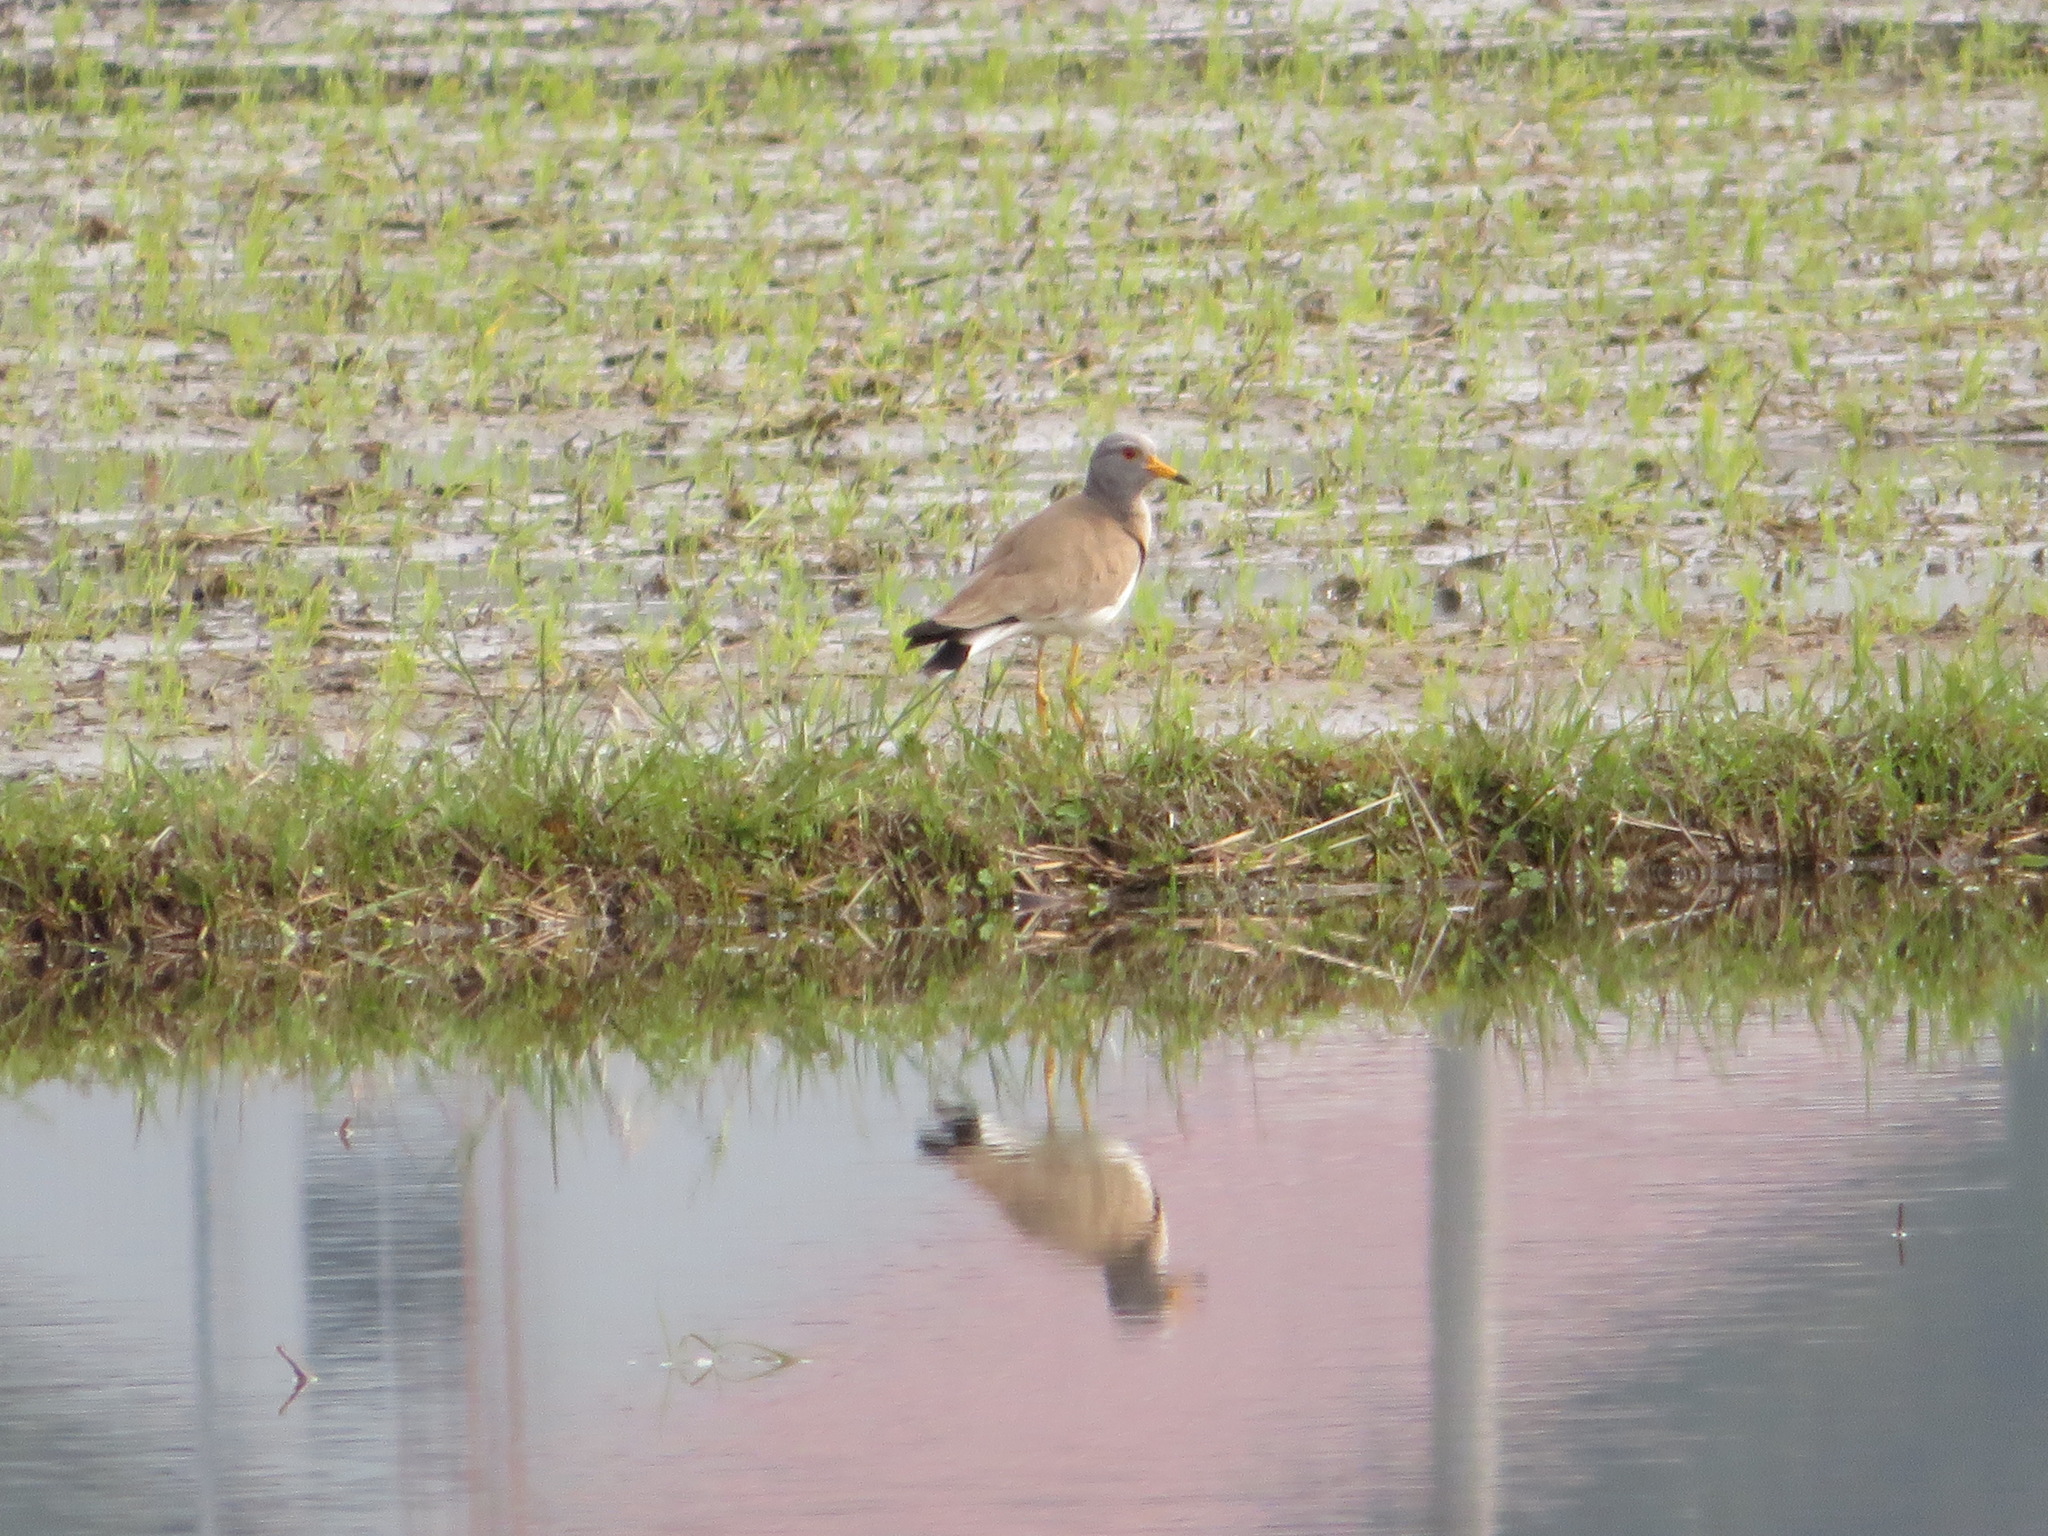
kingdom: Animalia
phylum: Chordata
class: Aves
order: Charadriiformes
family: Charadriidae
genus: Vanellus
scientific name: Vanellus cinereus
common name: Grey-headed lapwing
